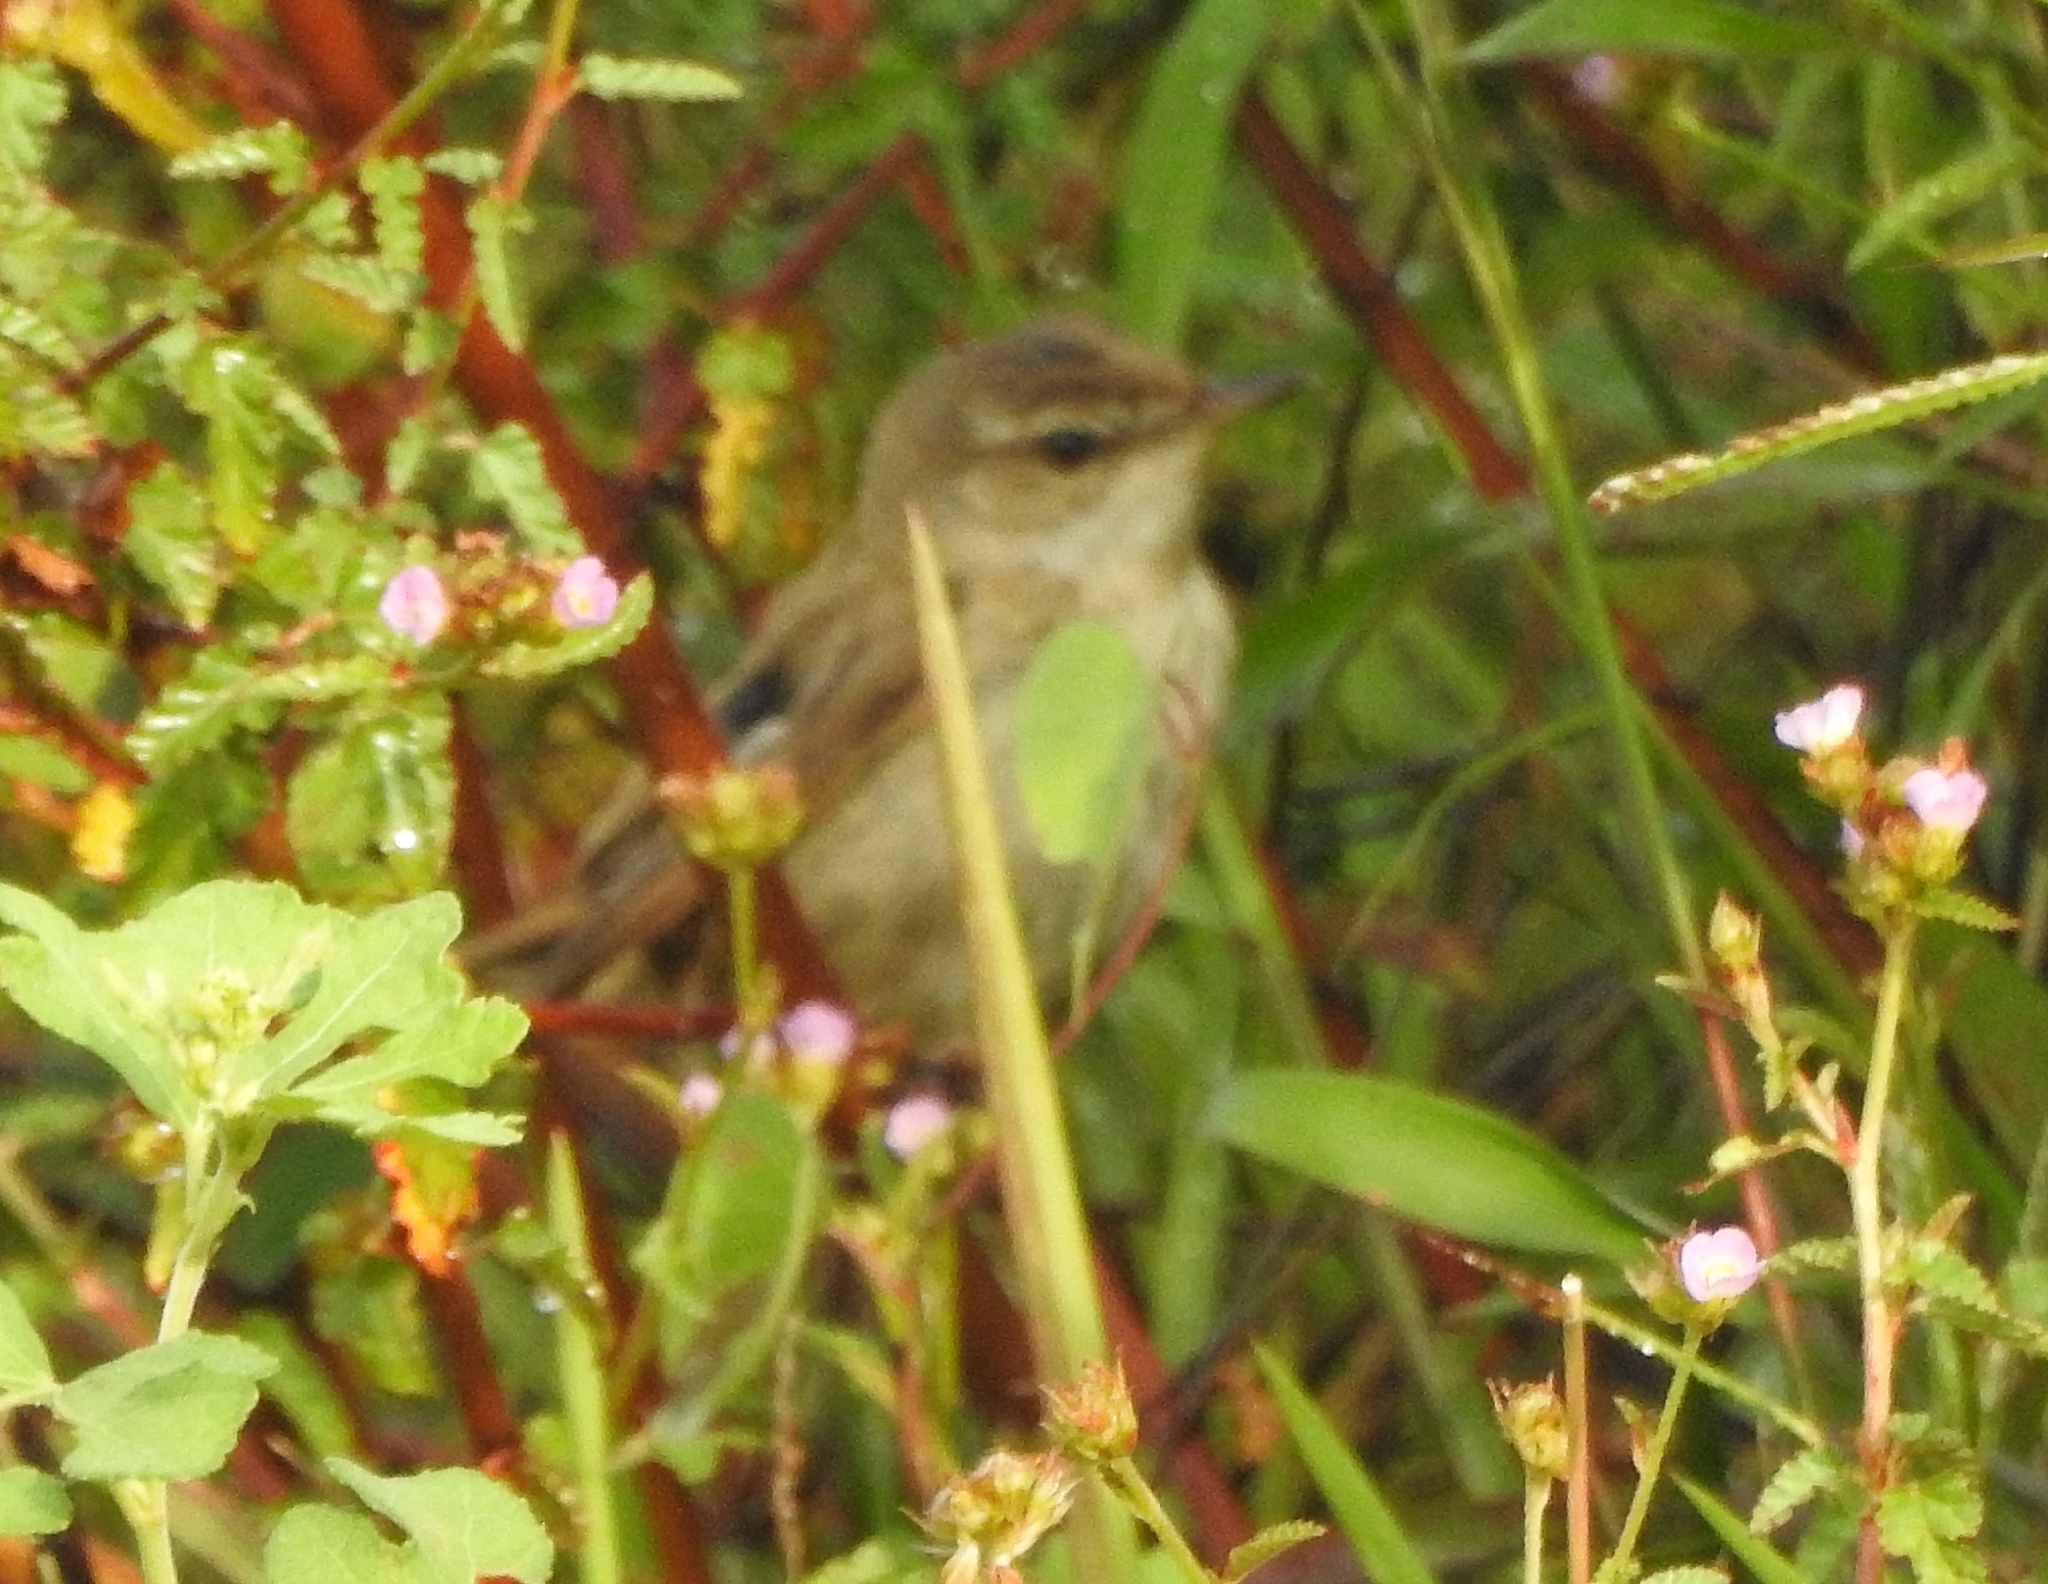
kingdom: Animalia
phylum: Chordata
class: Aves
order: Passeriformes
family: Acrocephalidae
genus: Acrocephalus
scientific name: Acrocephalus agricola
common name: Paddyfield warbler
